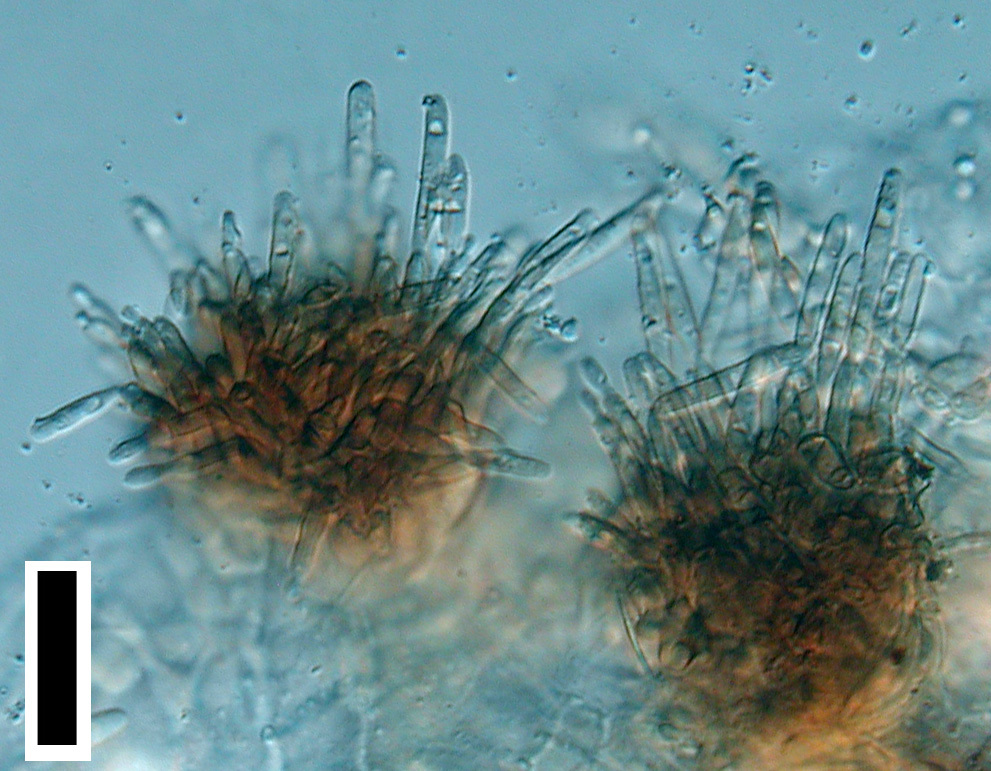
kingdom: Fungi
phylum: Ascomycota
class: Dothideomycetes
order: Mycosphaerellales
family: Mycosphaerellaceae
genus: Pseudocercospora
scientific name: Pseudocercospora aristoteliae
